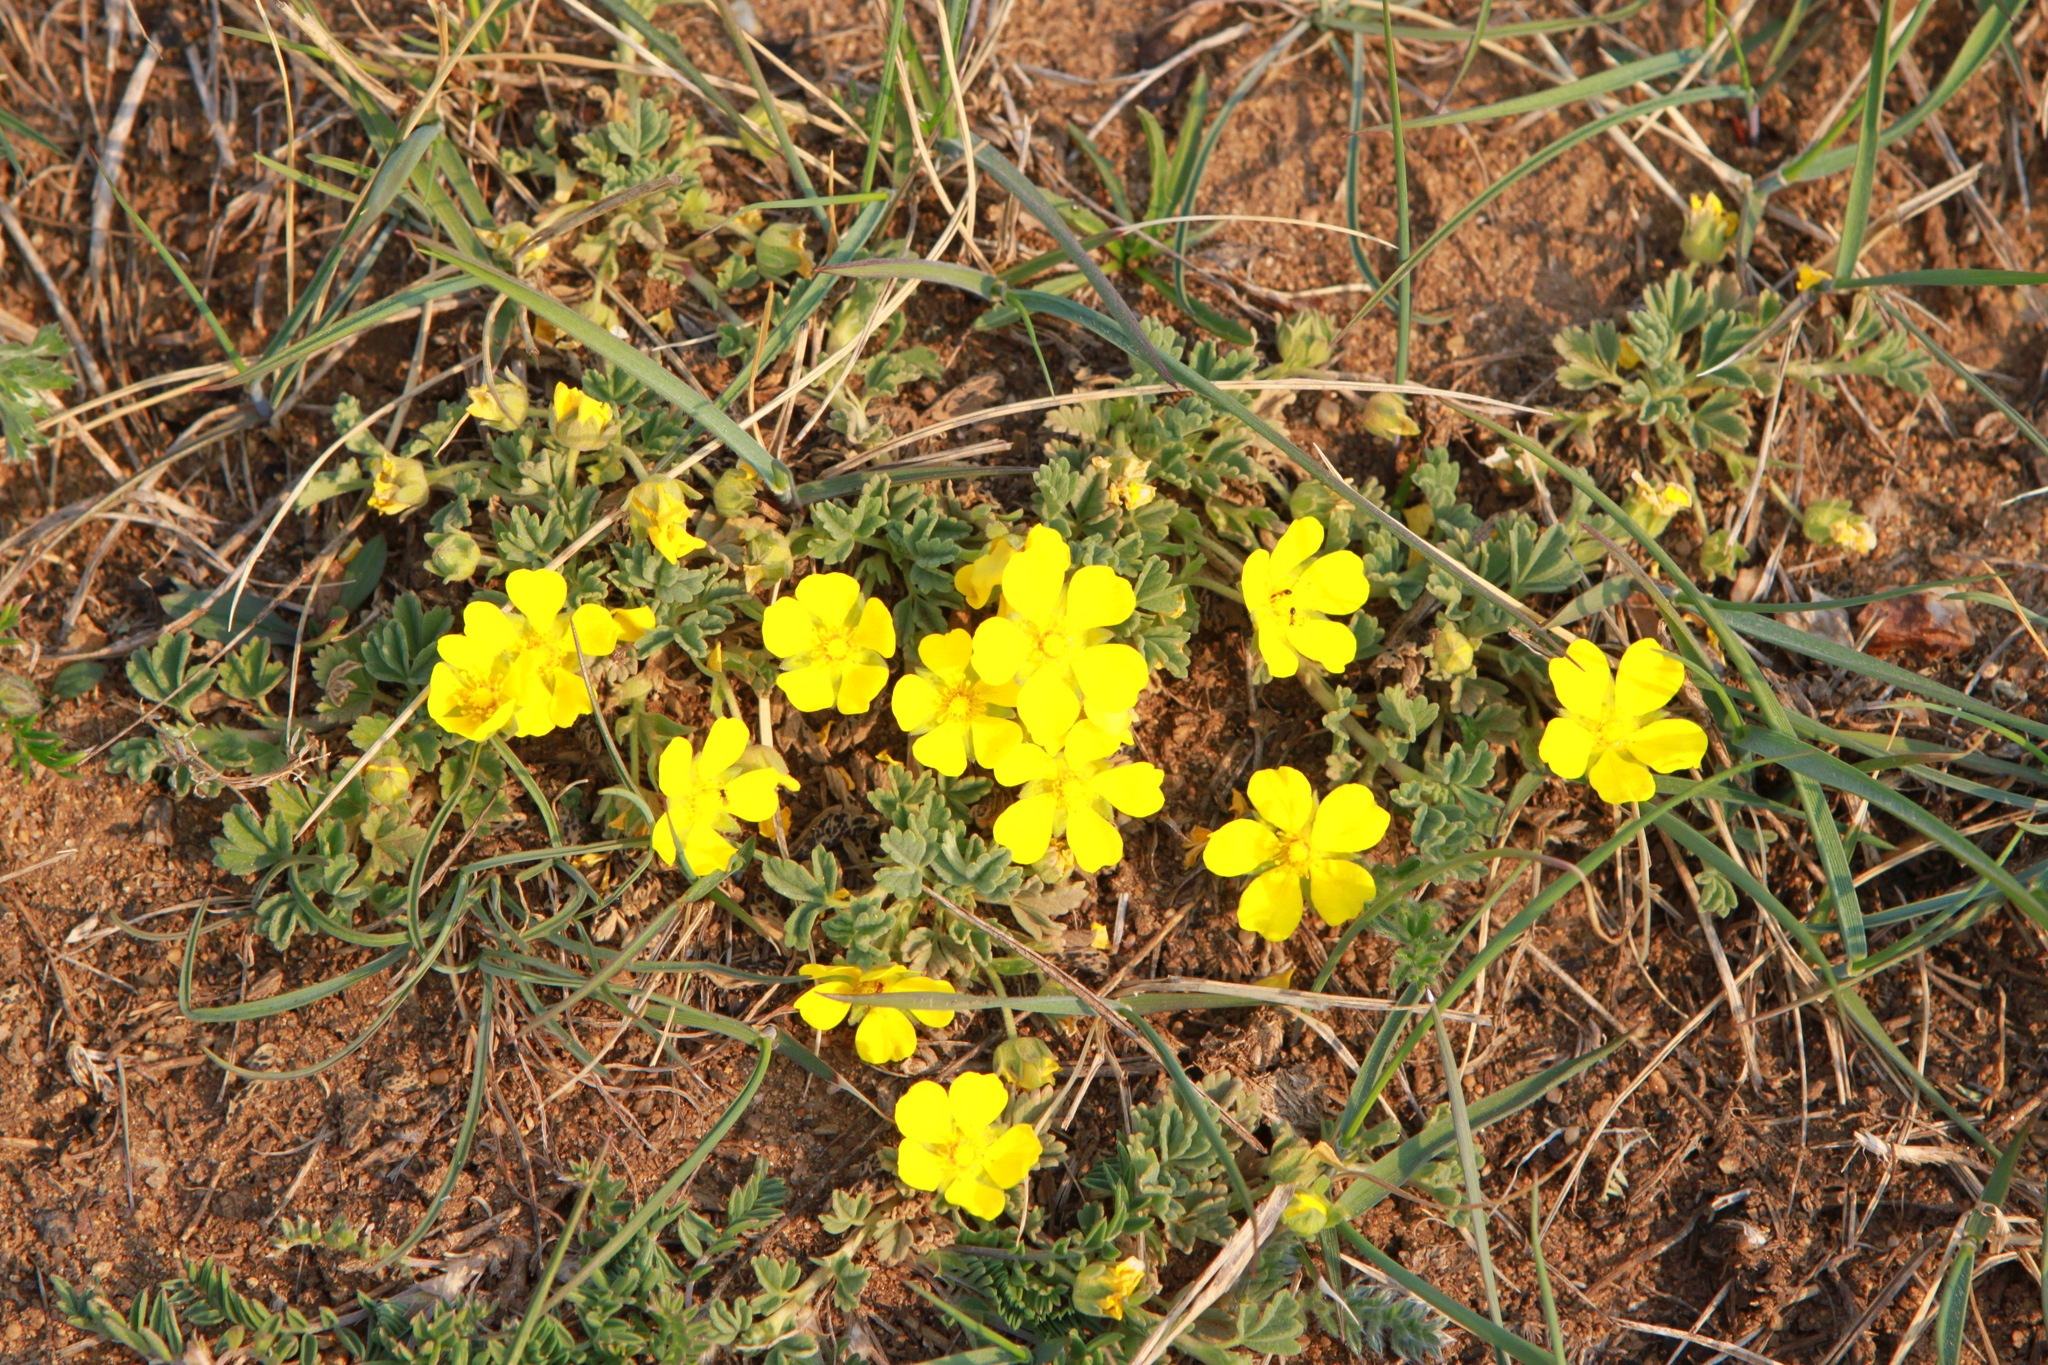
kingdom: Plantae
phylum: Tracheophyta
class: Magnoliopsida
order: Rosales
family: Rosaceae
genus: Potentilla
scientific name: Potentilla acaulis
